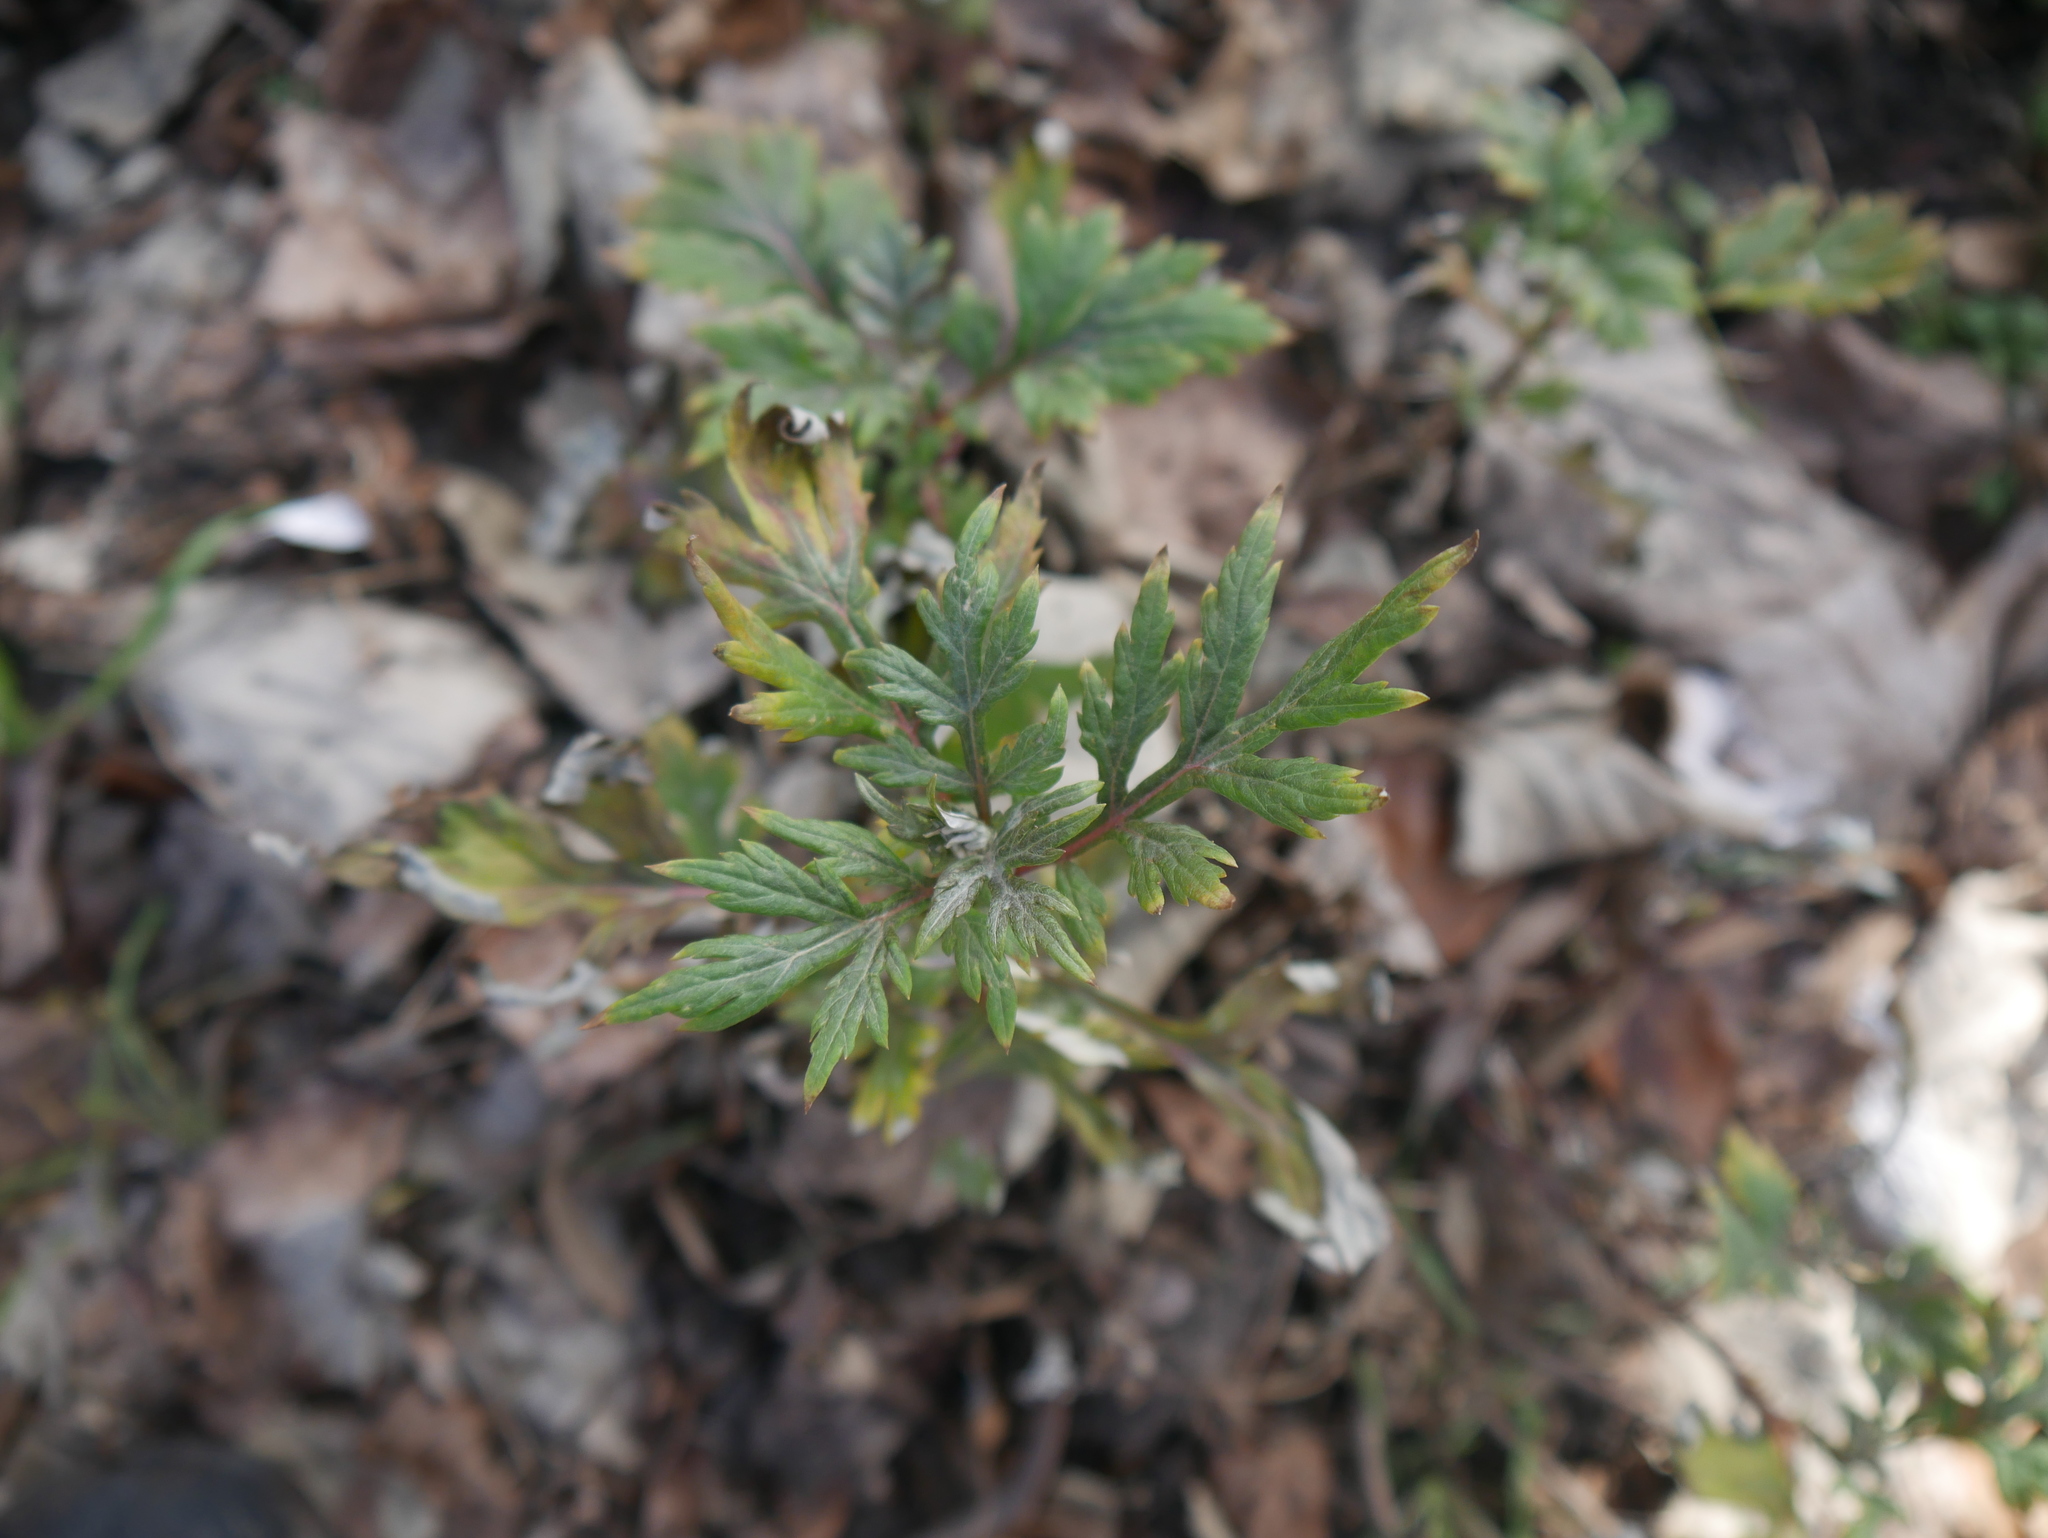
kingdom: Plantae
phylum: Tracheophyta
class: Magnoliopsida
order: Asterales
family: Asteraceae
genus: Artemisia
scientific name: Artemisia vulgaris
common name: Mugwort
